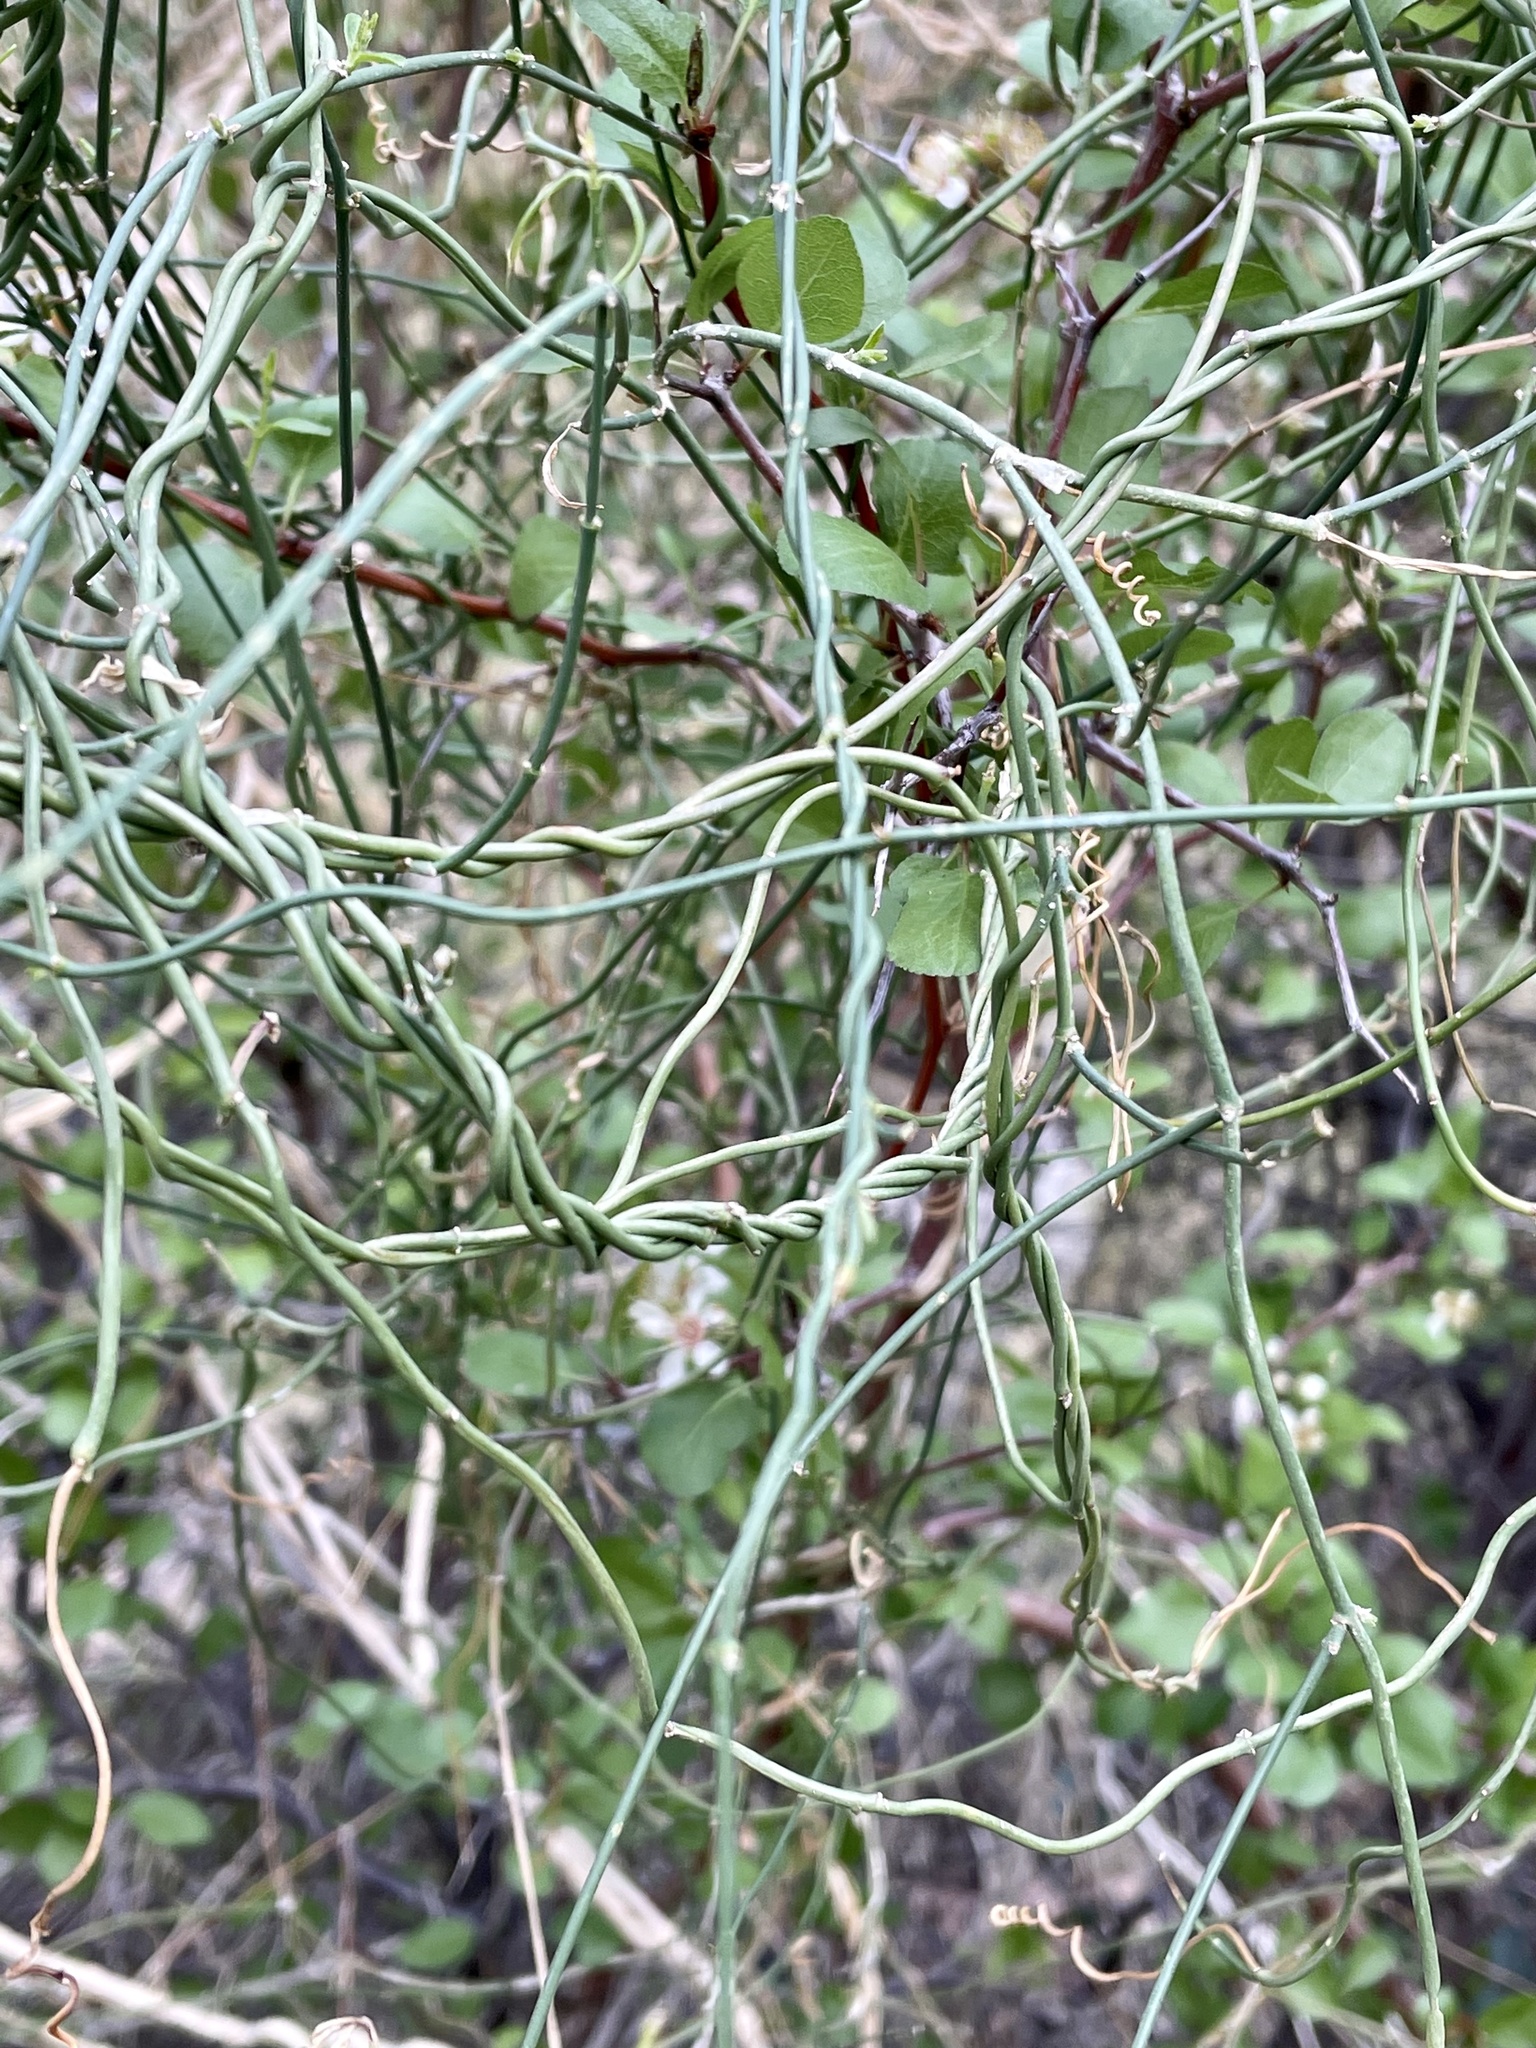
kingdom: Plantae
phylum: Tracheophyta
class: Magnoliopsida
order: Gentianales
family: Apocynaceae
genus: Funastrum
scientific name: Funastrum heterophyllum
